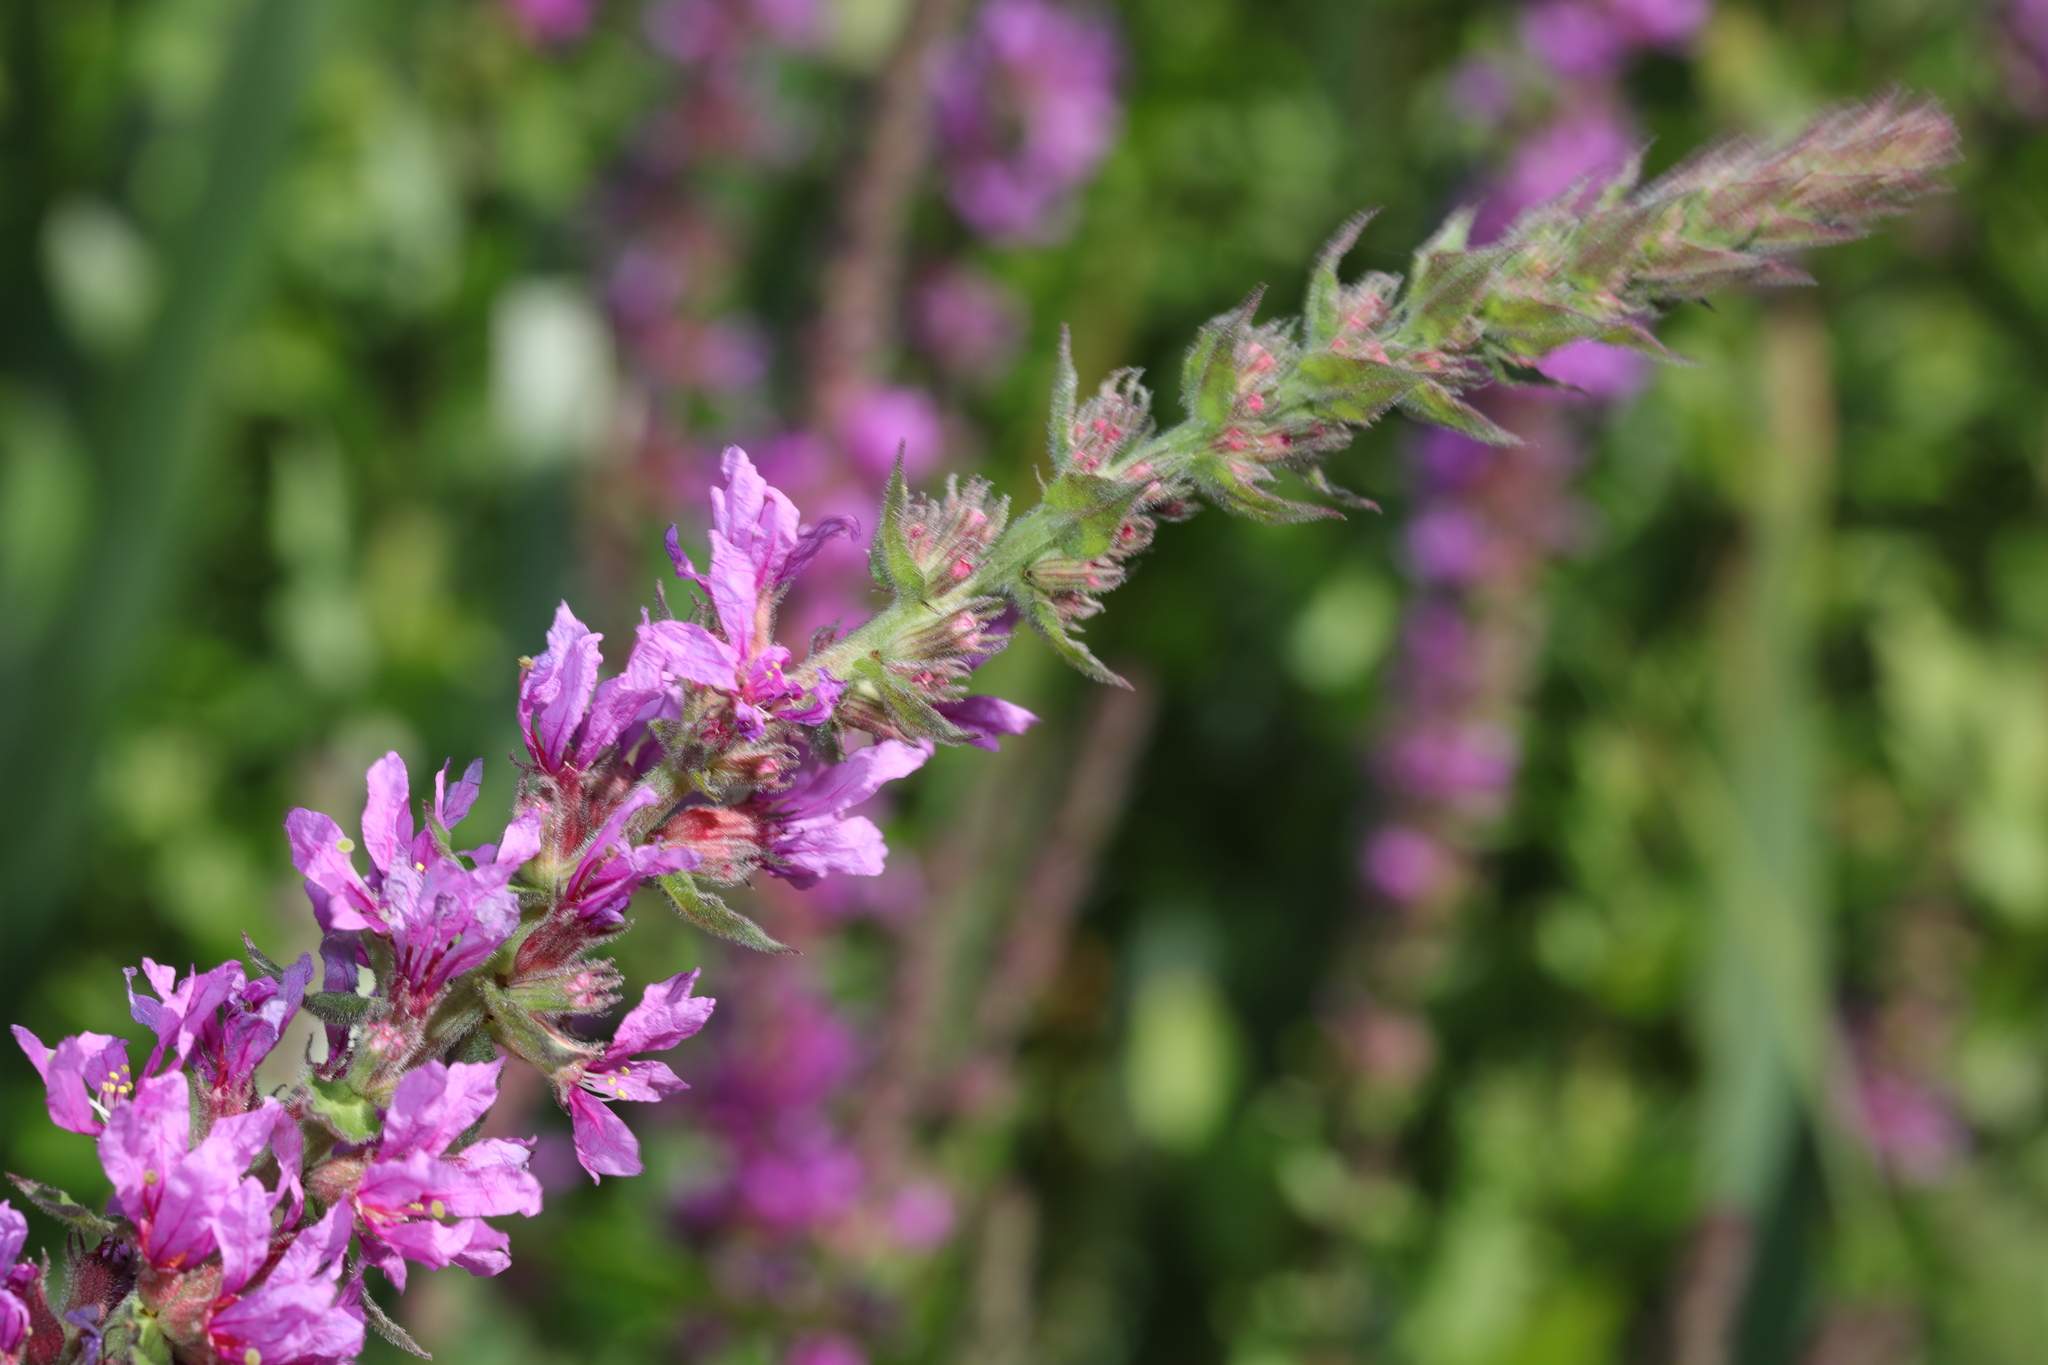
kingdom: Plantae
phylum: Tracheophyta
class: Magnoliopsida
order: Myrtales
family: Lythraceae
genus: Lythrum
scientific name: Lythrum salicaria
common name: Purple loosestrife
